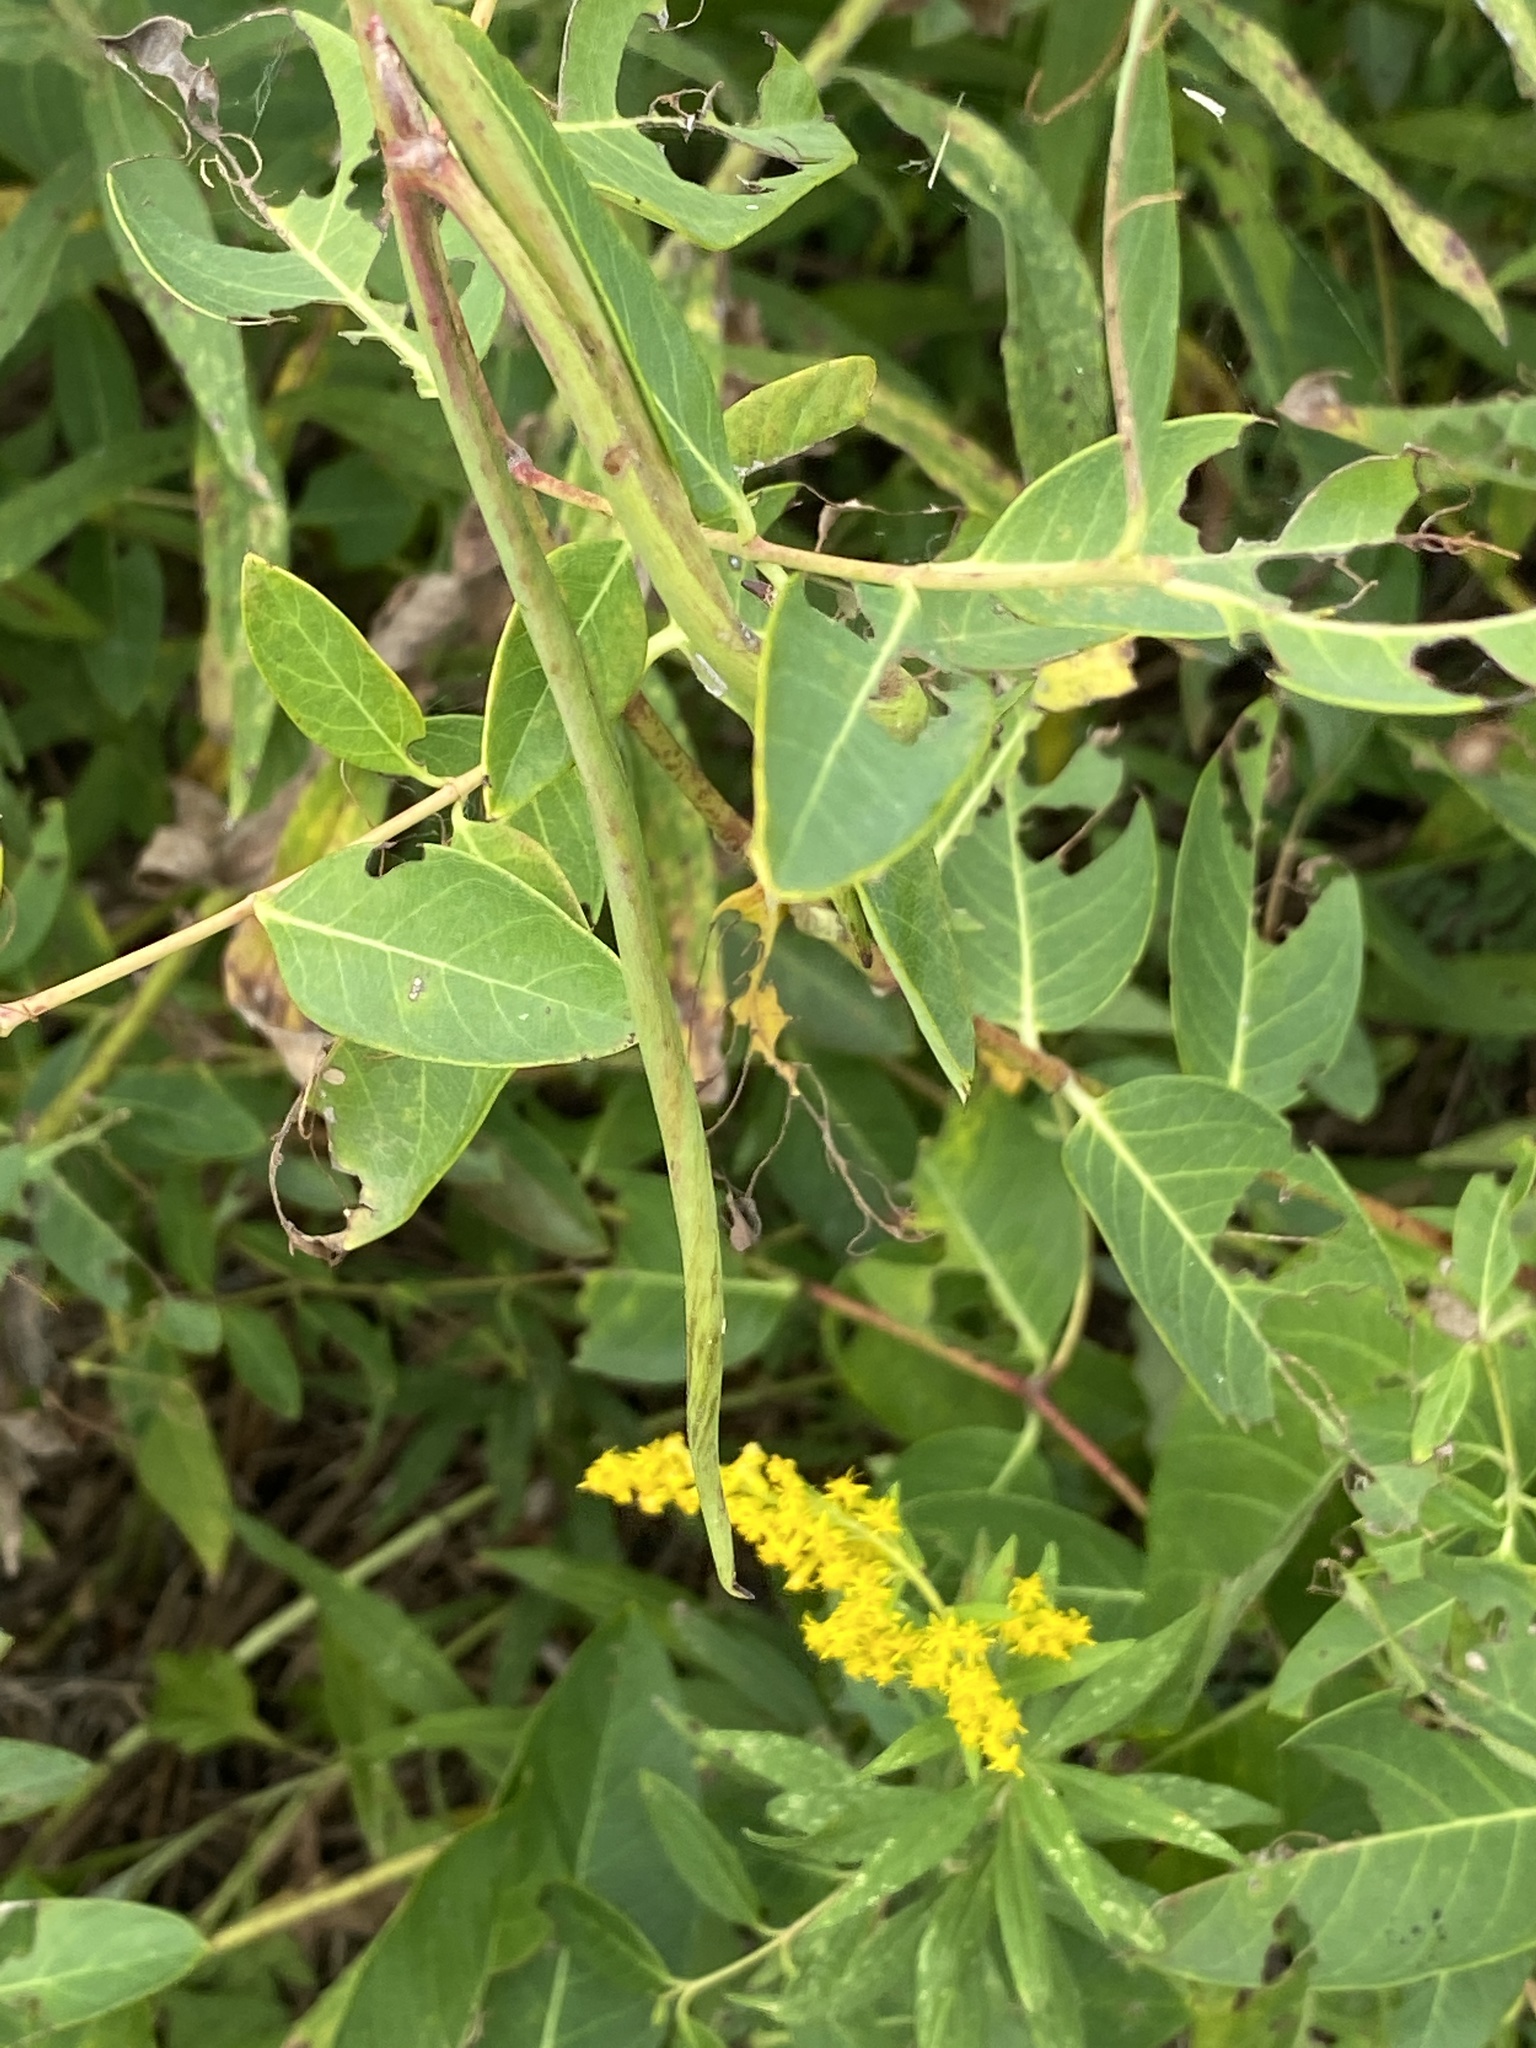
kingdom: Plantae
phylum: Tracheophyta
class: Magnoliopsida
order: Gentianales
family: Apocynaceae
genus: Apocynum
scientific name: Apocynum cannabinum
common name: Hemp dogbane
